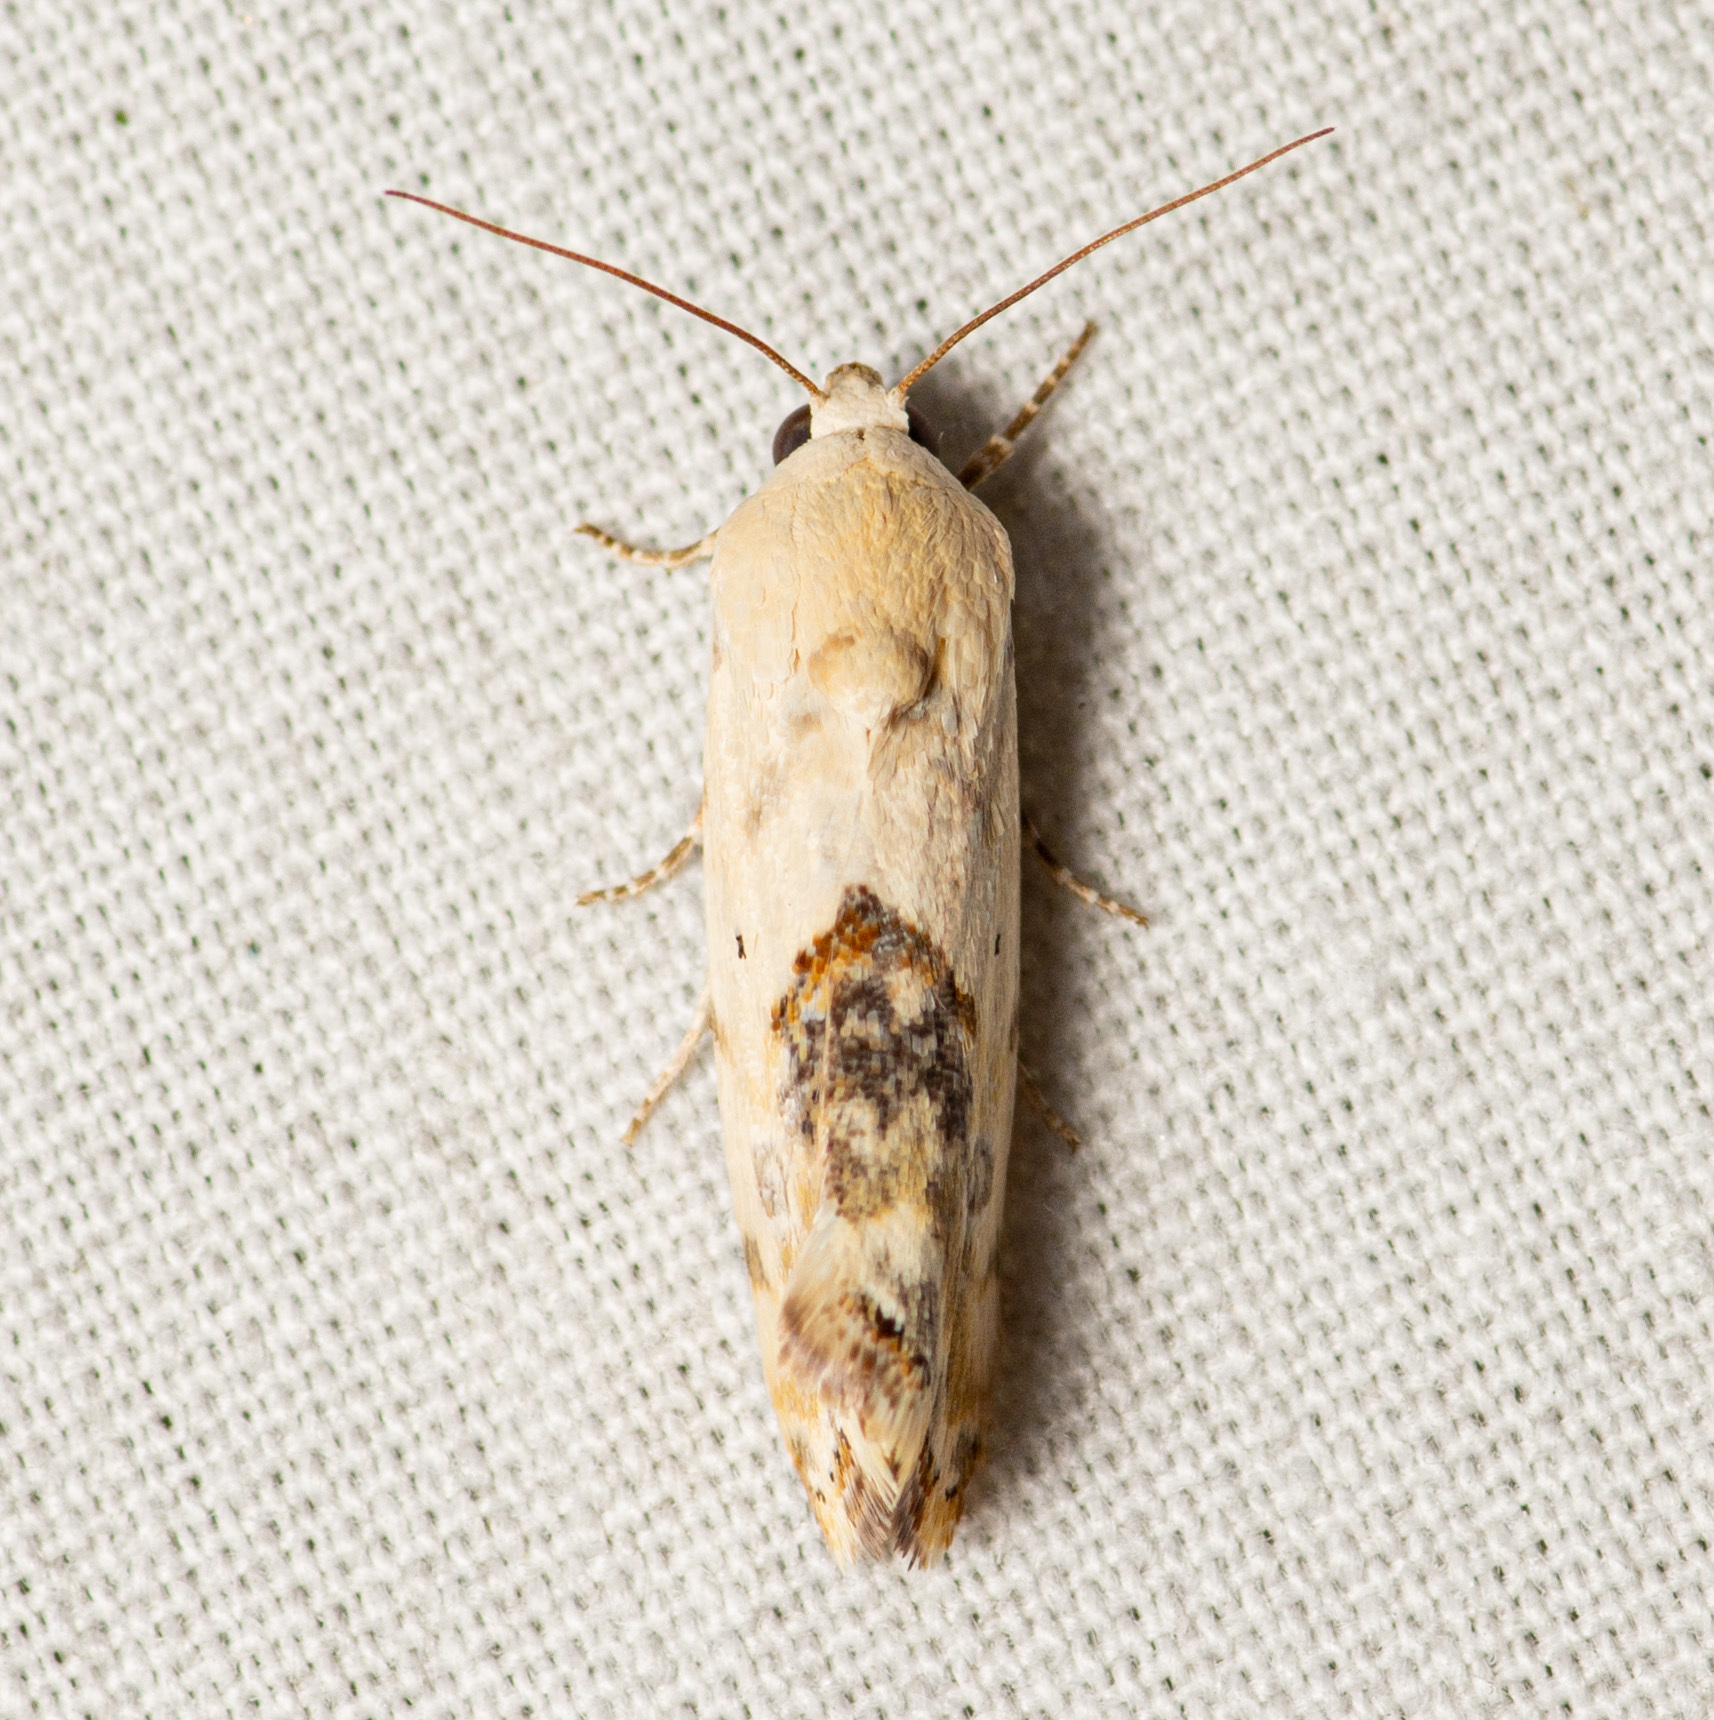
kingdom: Animalia
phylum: Arthropoda
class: Insecta
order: Lepidoptera
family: Noctuidae
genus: Acontia
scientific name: Acontia libedis
